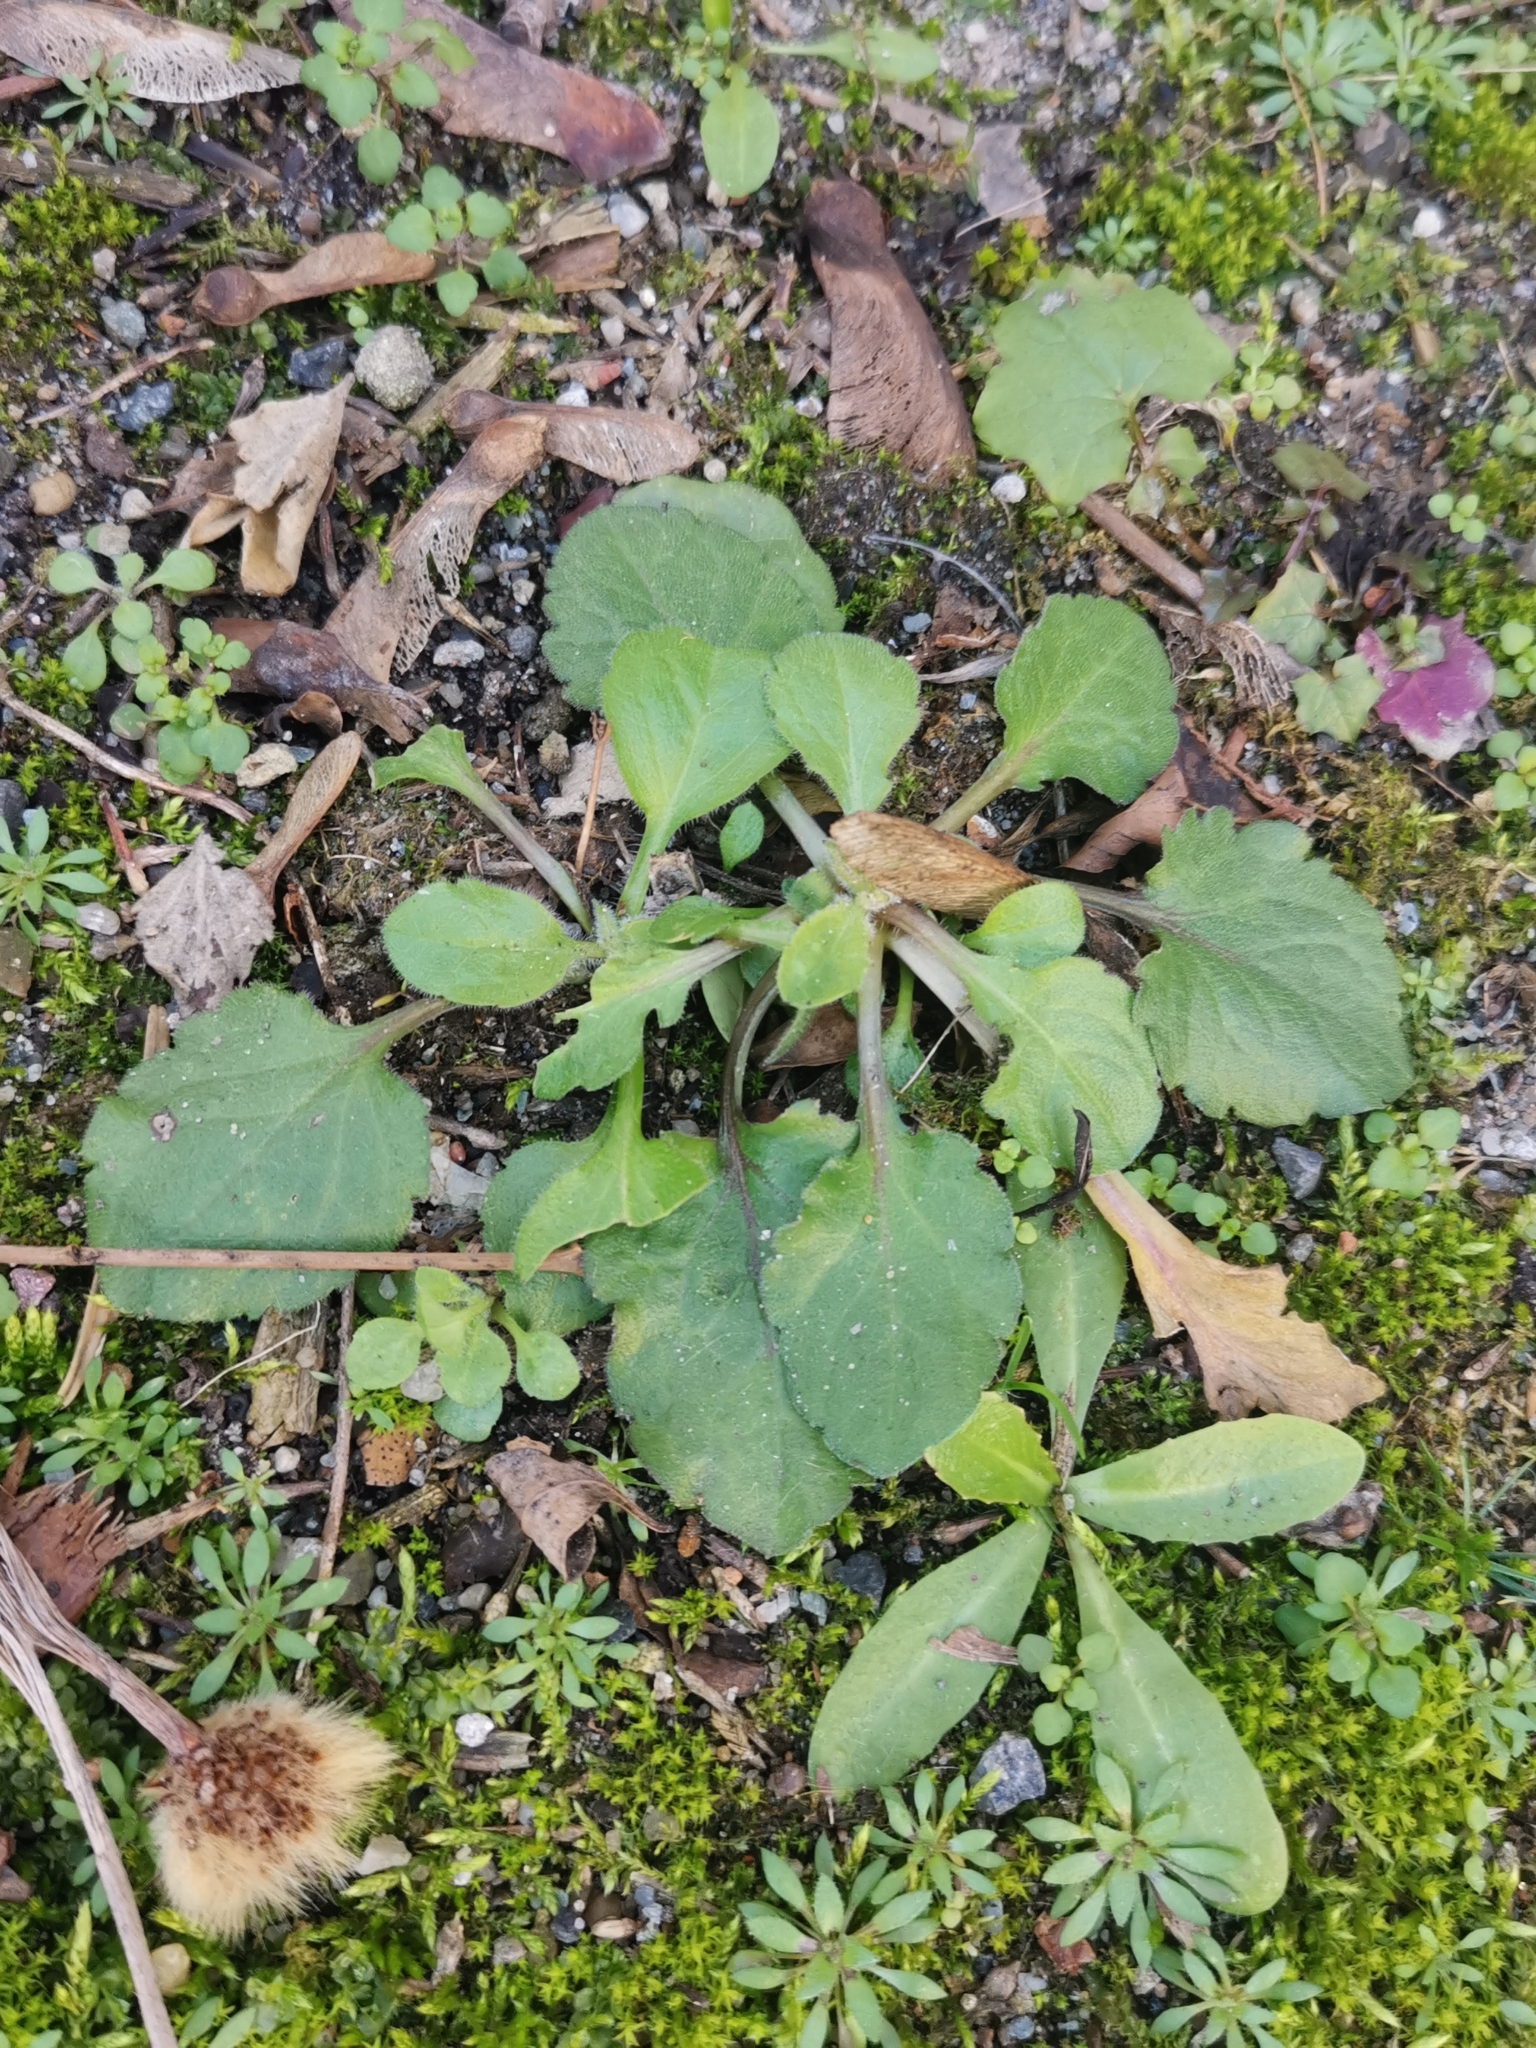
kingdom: Plantae
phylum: Tracheophyta
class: Magnoliopsida
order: Asterales
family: Asteraceae
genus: Lapsana
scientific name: Lapsana communis
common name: Nipplewort
